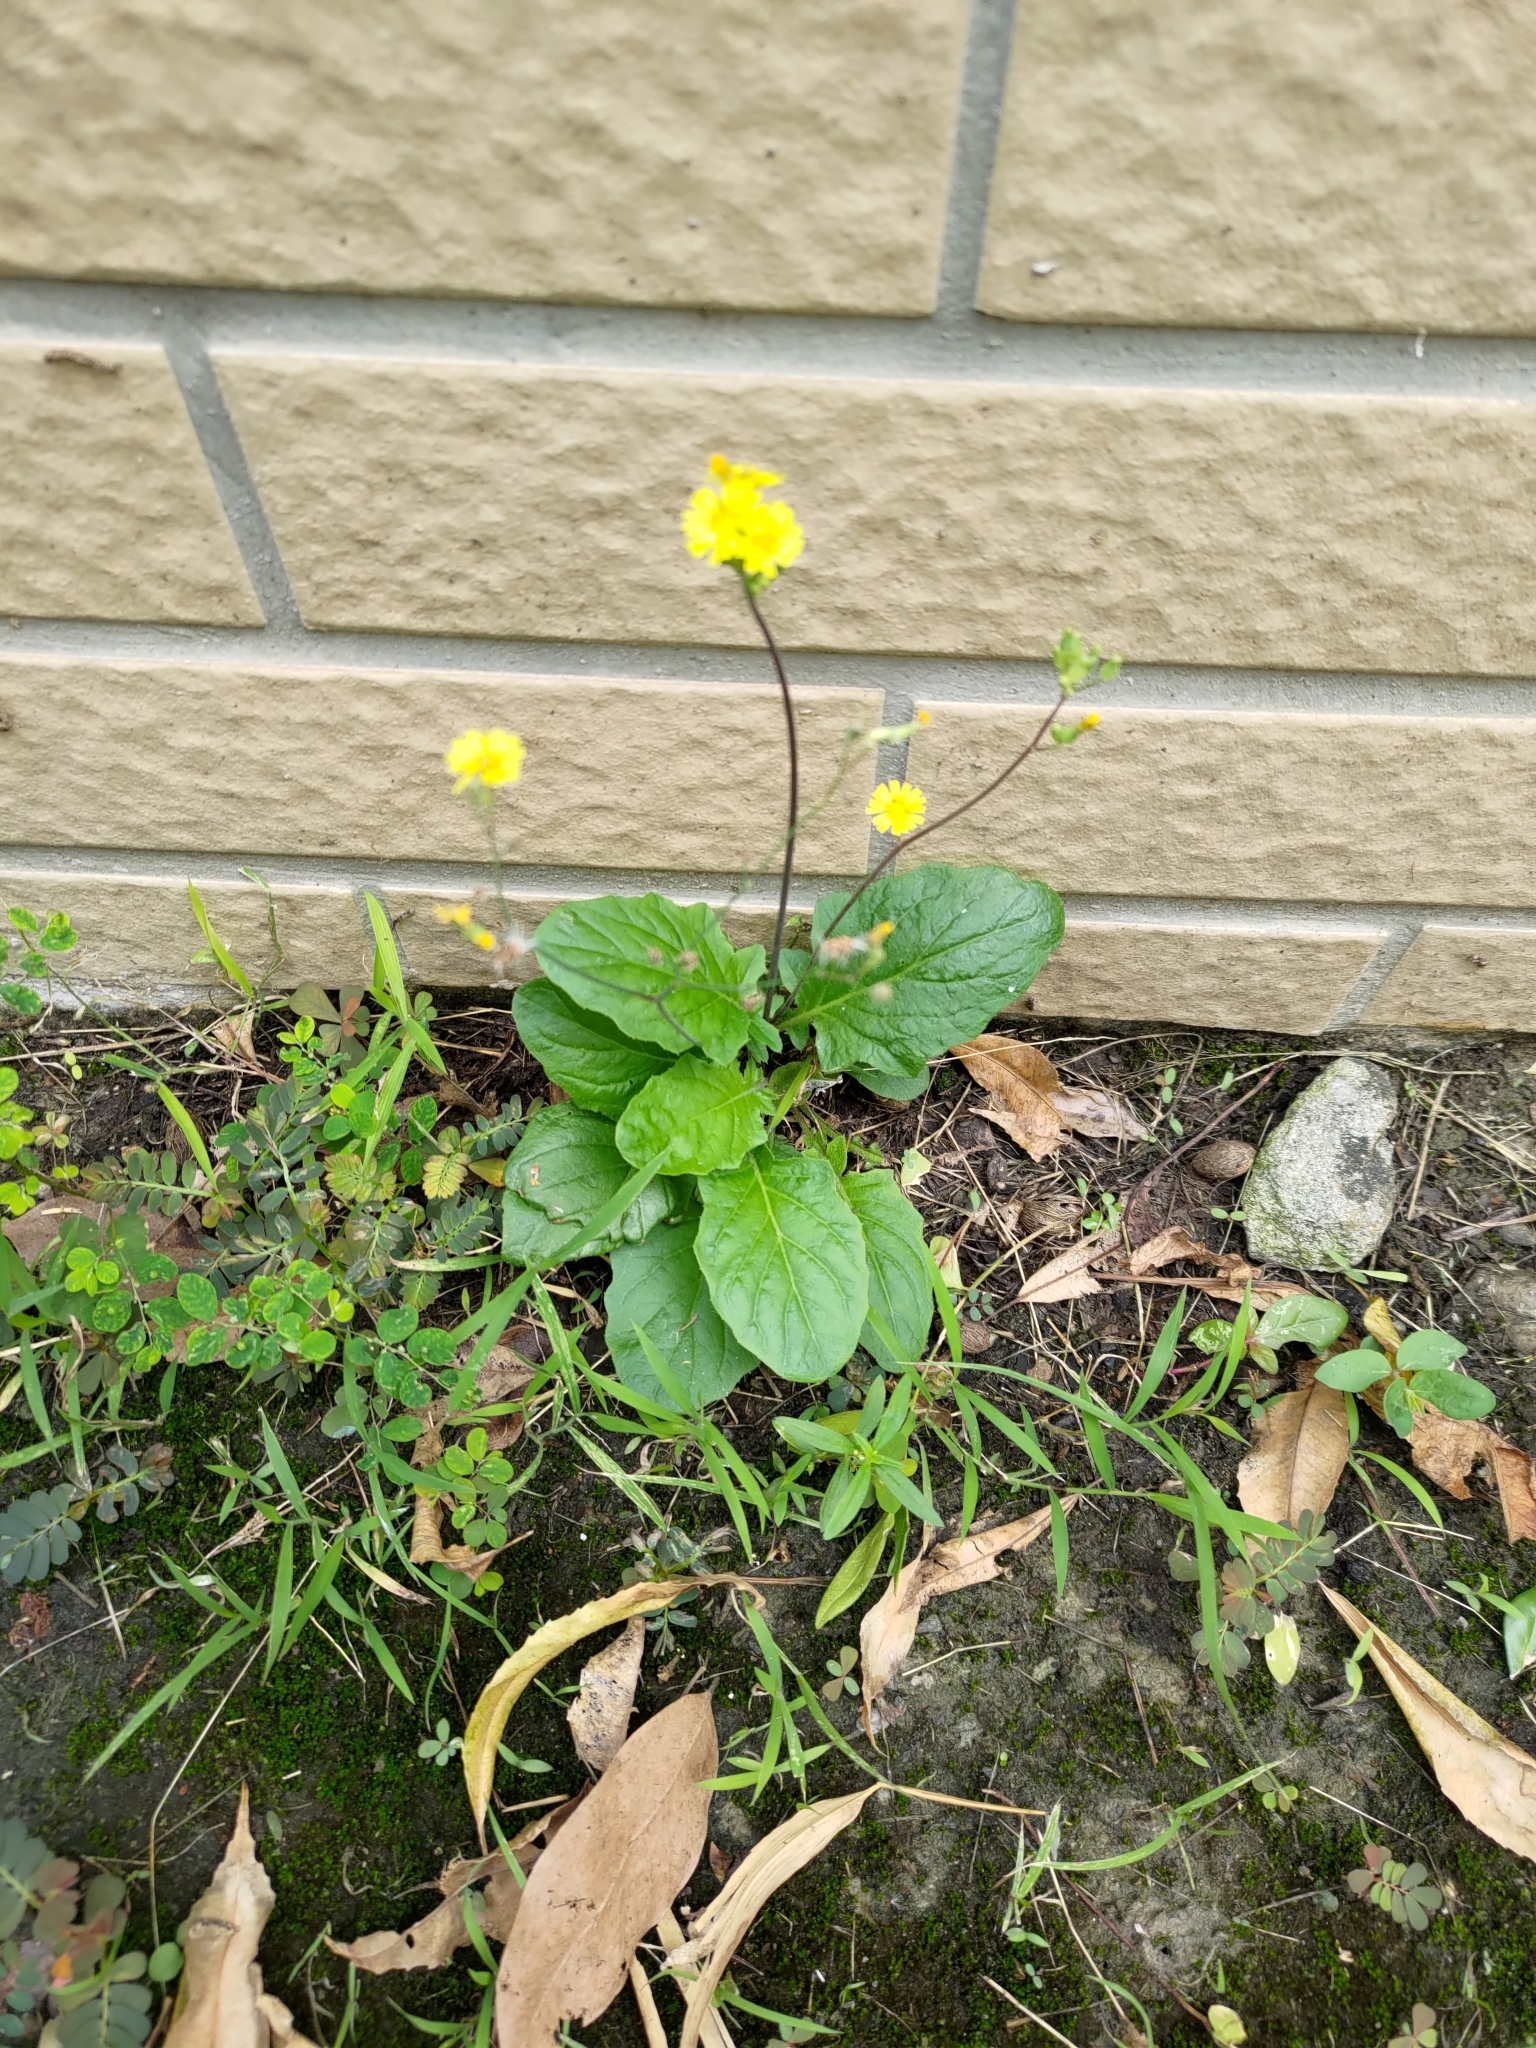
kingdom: Plantae
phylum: Tracheophyta
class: Magnoliopsida
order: Asterales
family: Asteraceae
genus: Youngia
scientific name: Youngia japonica
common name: Oriental false hawksbeard
